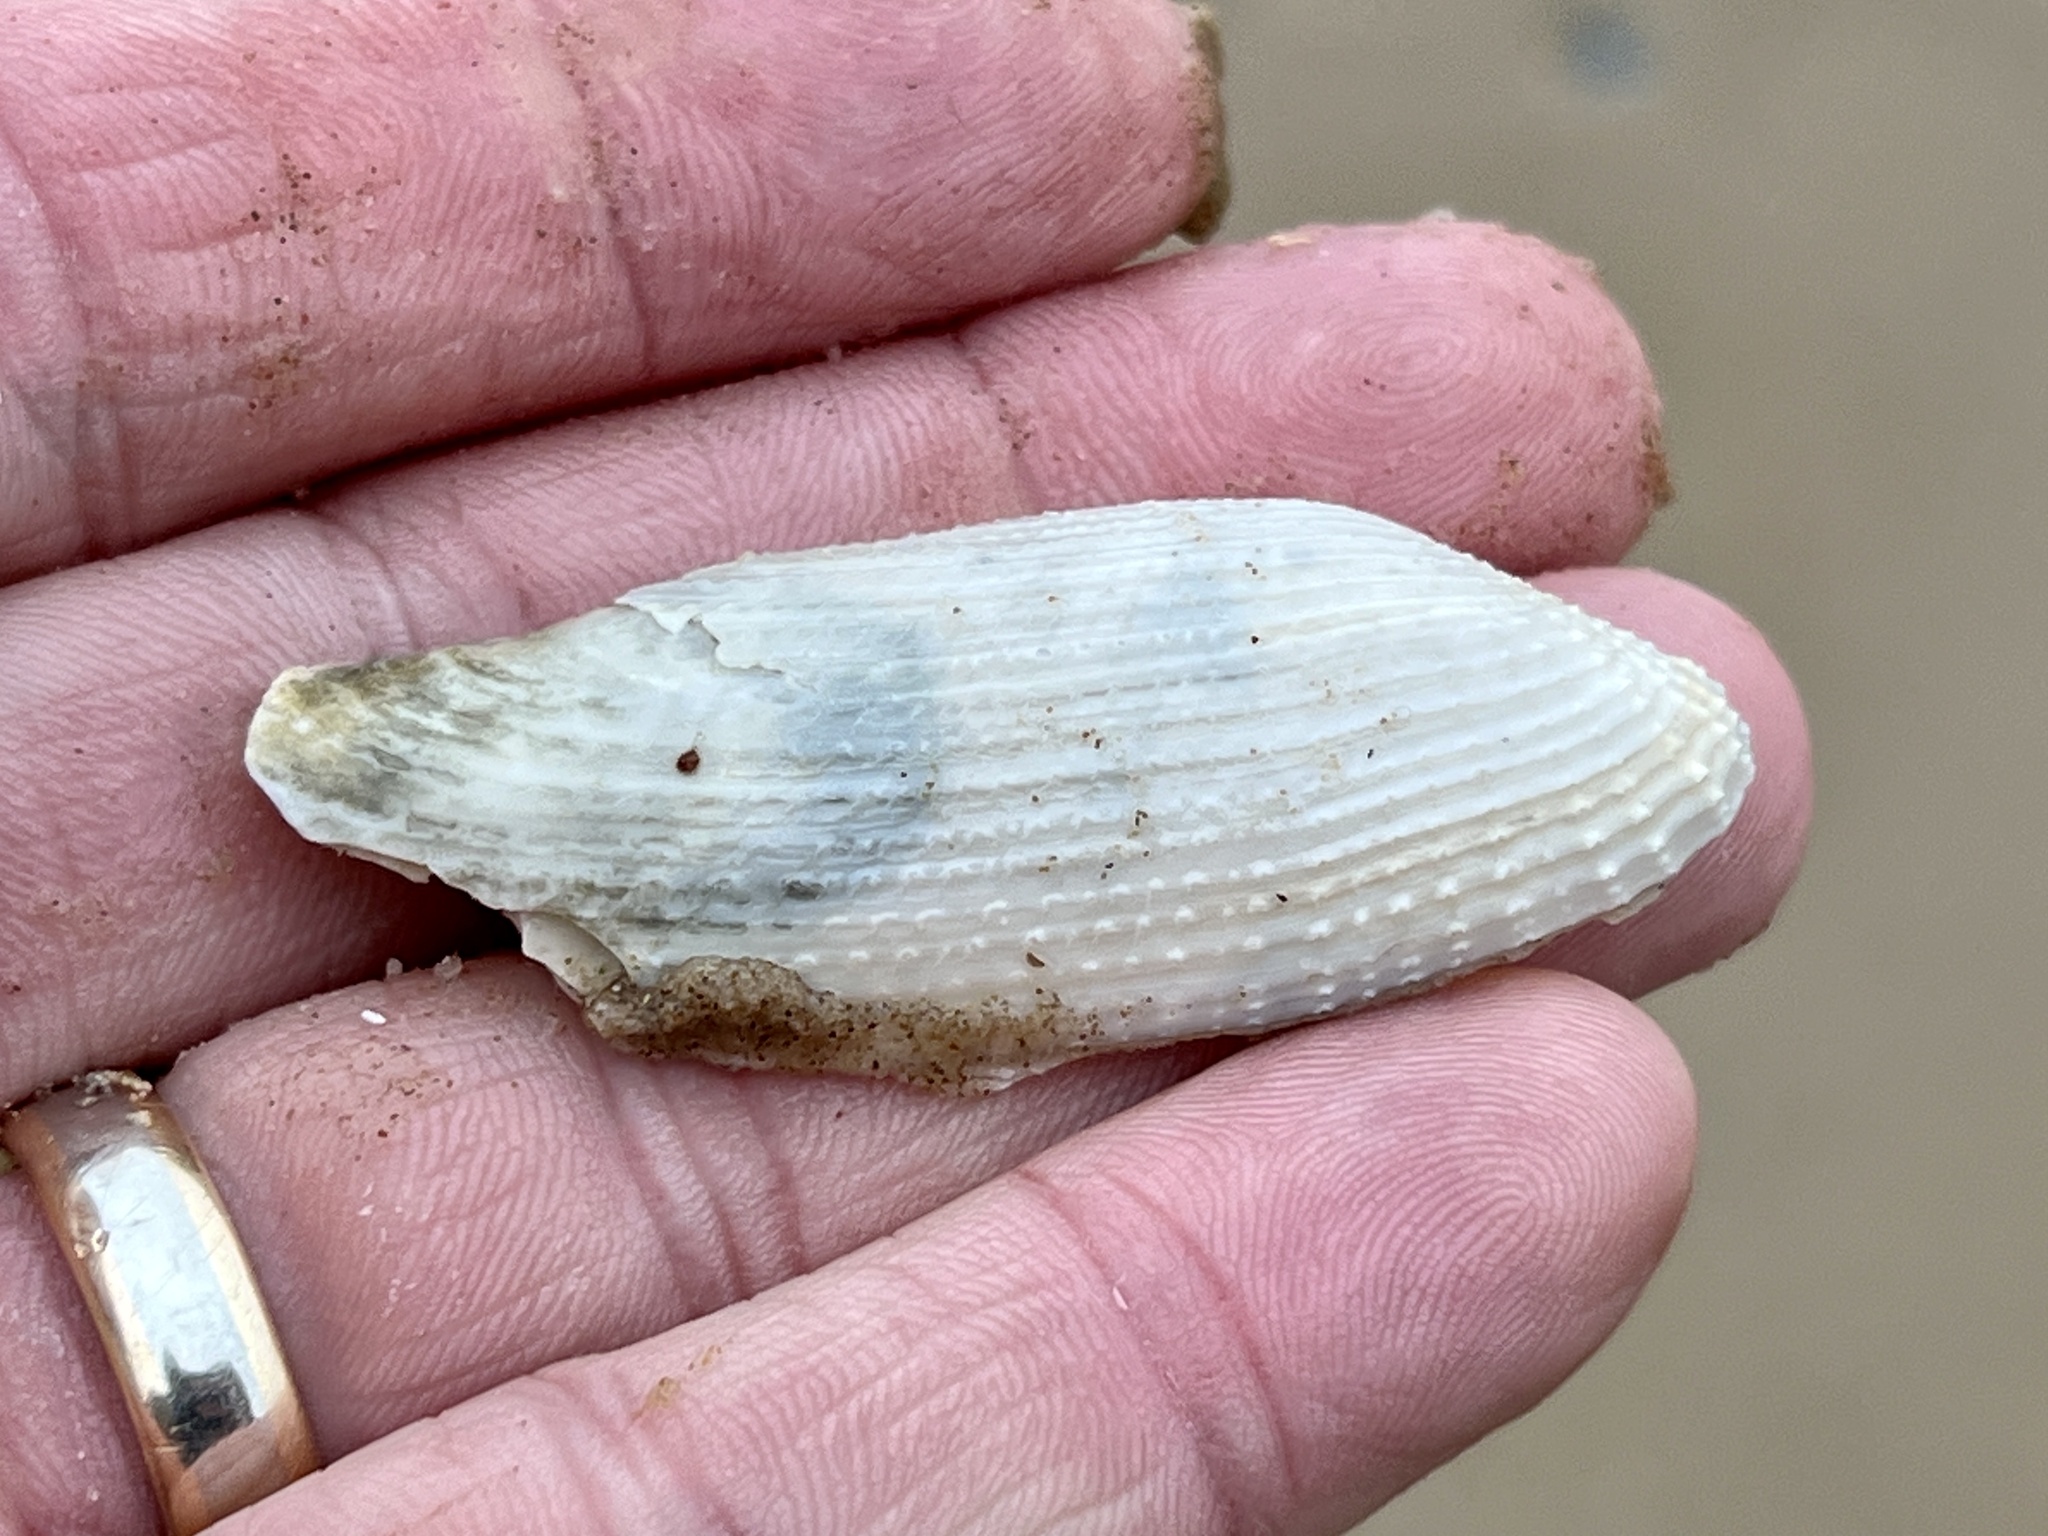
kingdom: Animalia
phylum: Mollusca
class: Bivalvia
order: Myida
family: Pholadidae
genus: Pholas
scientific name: Pholas campechiensis
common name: Campeche angel wing
